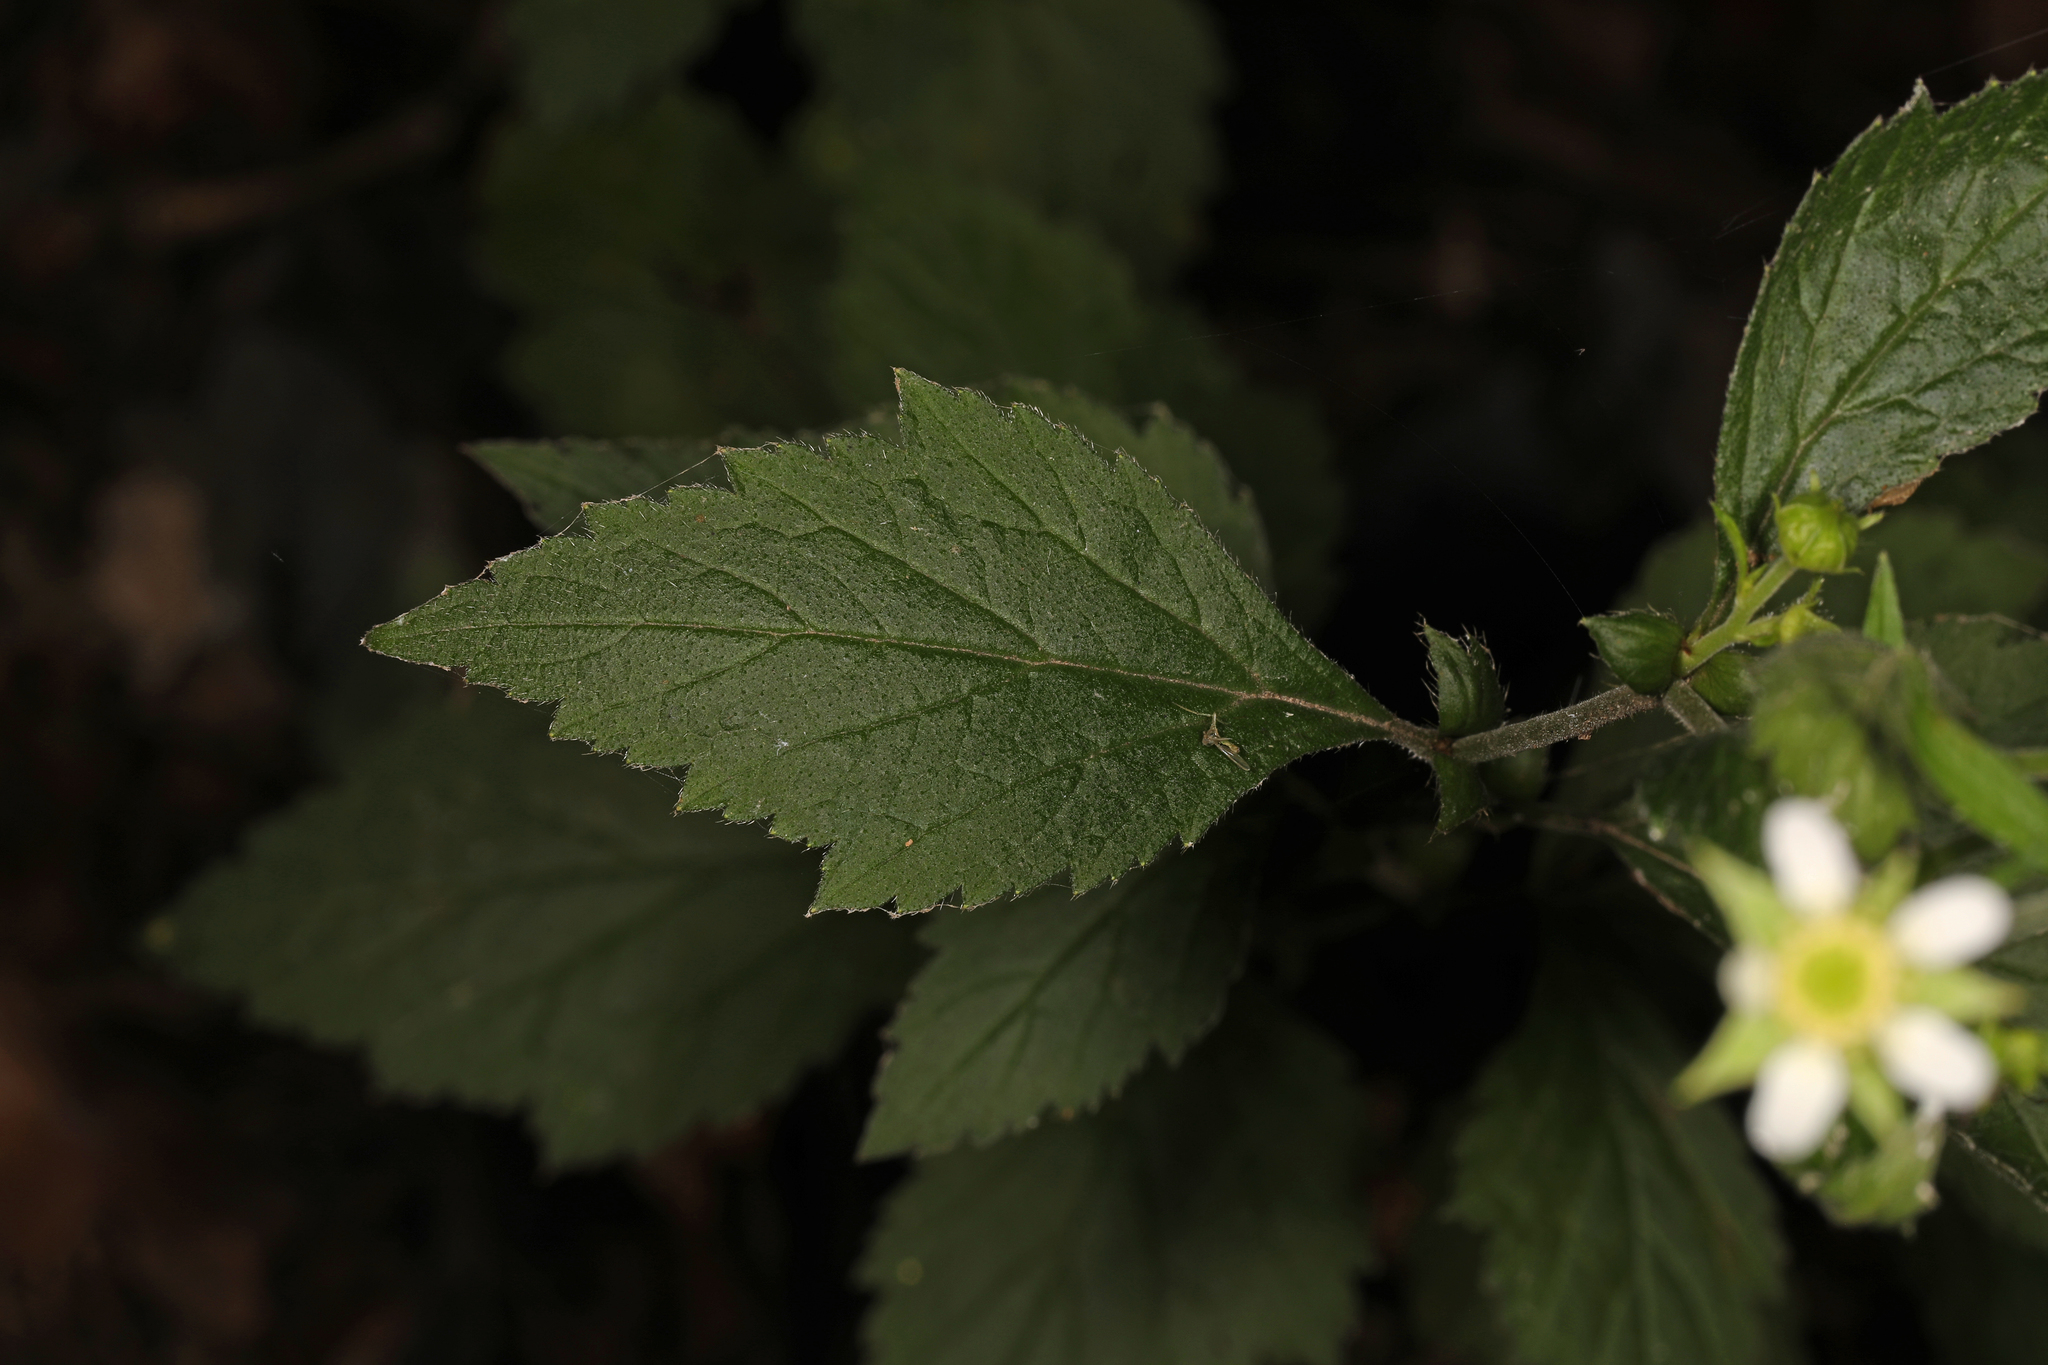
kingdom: Plantae
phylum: Tracheophyta
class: Magnoliopsida
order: Rosales
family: Rosaceae
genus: Geum
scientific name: Geum canadense
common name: White avens
